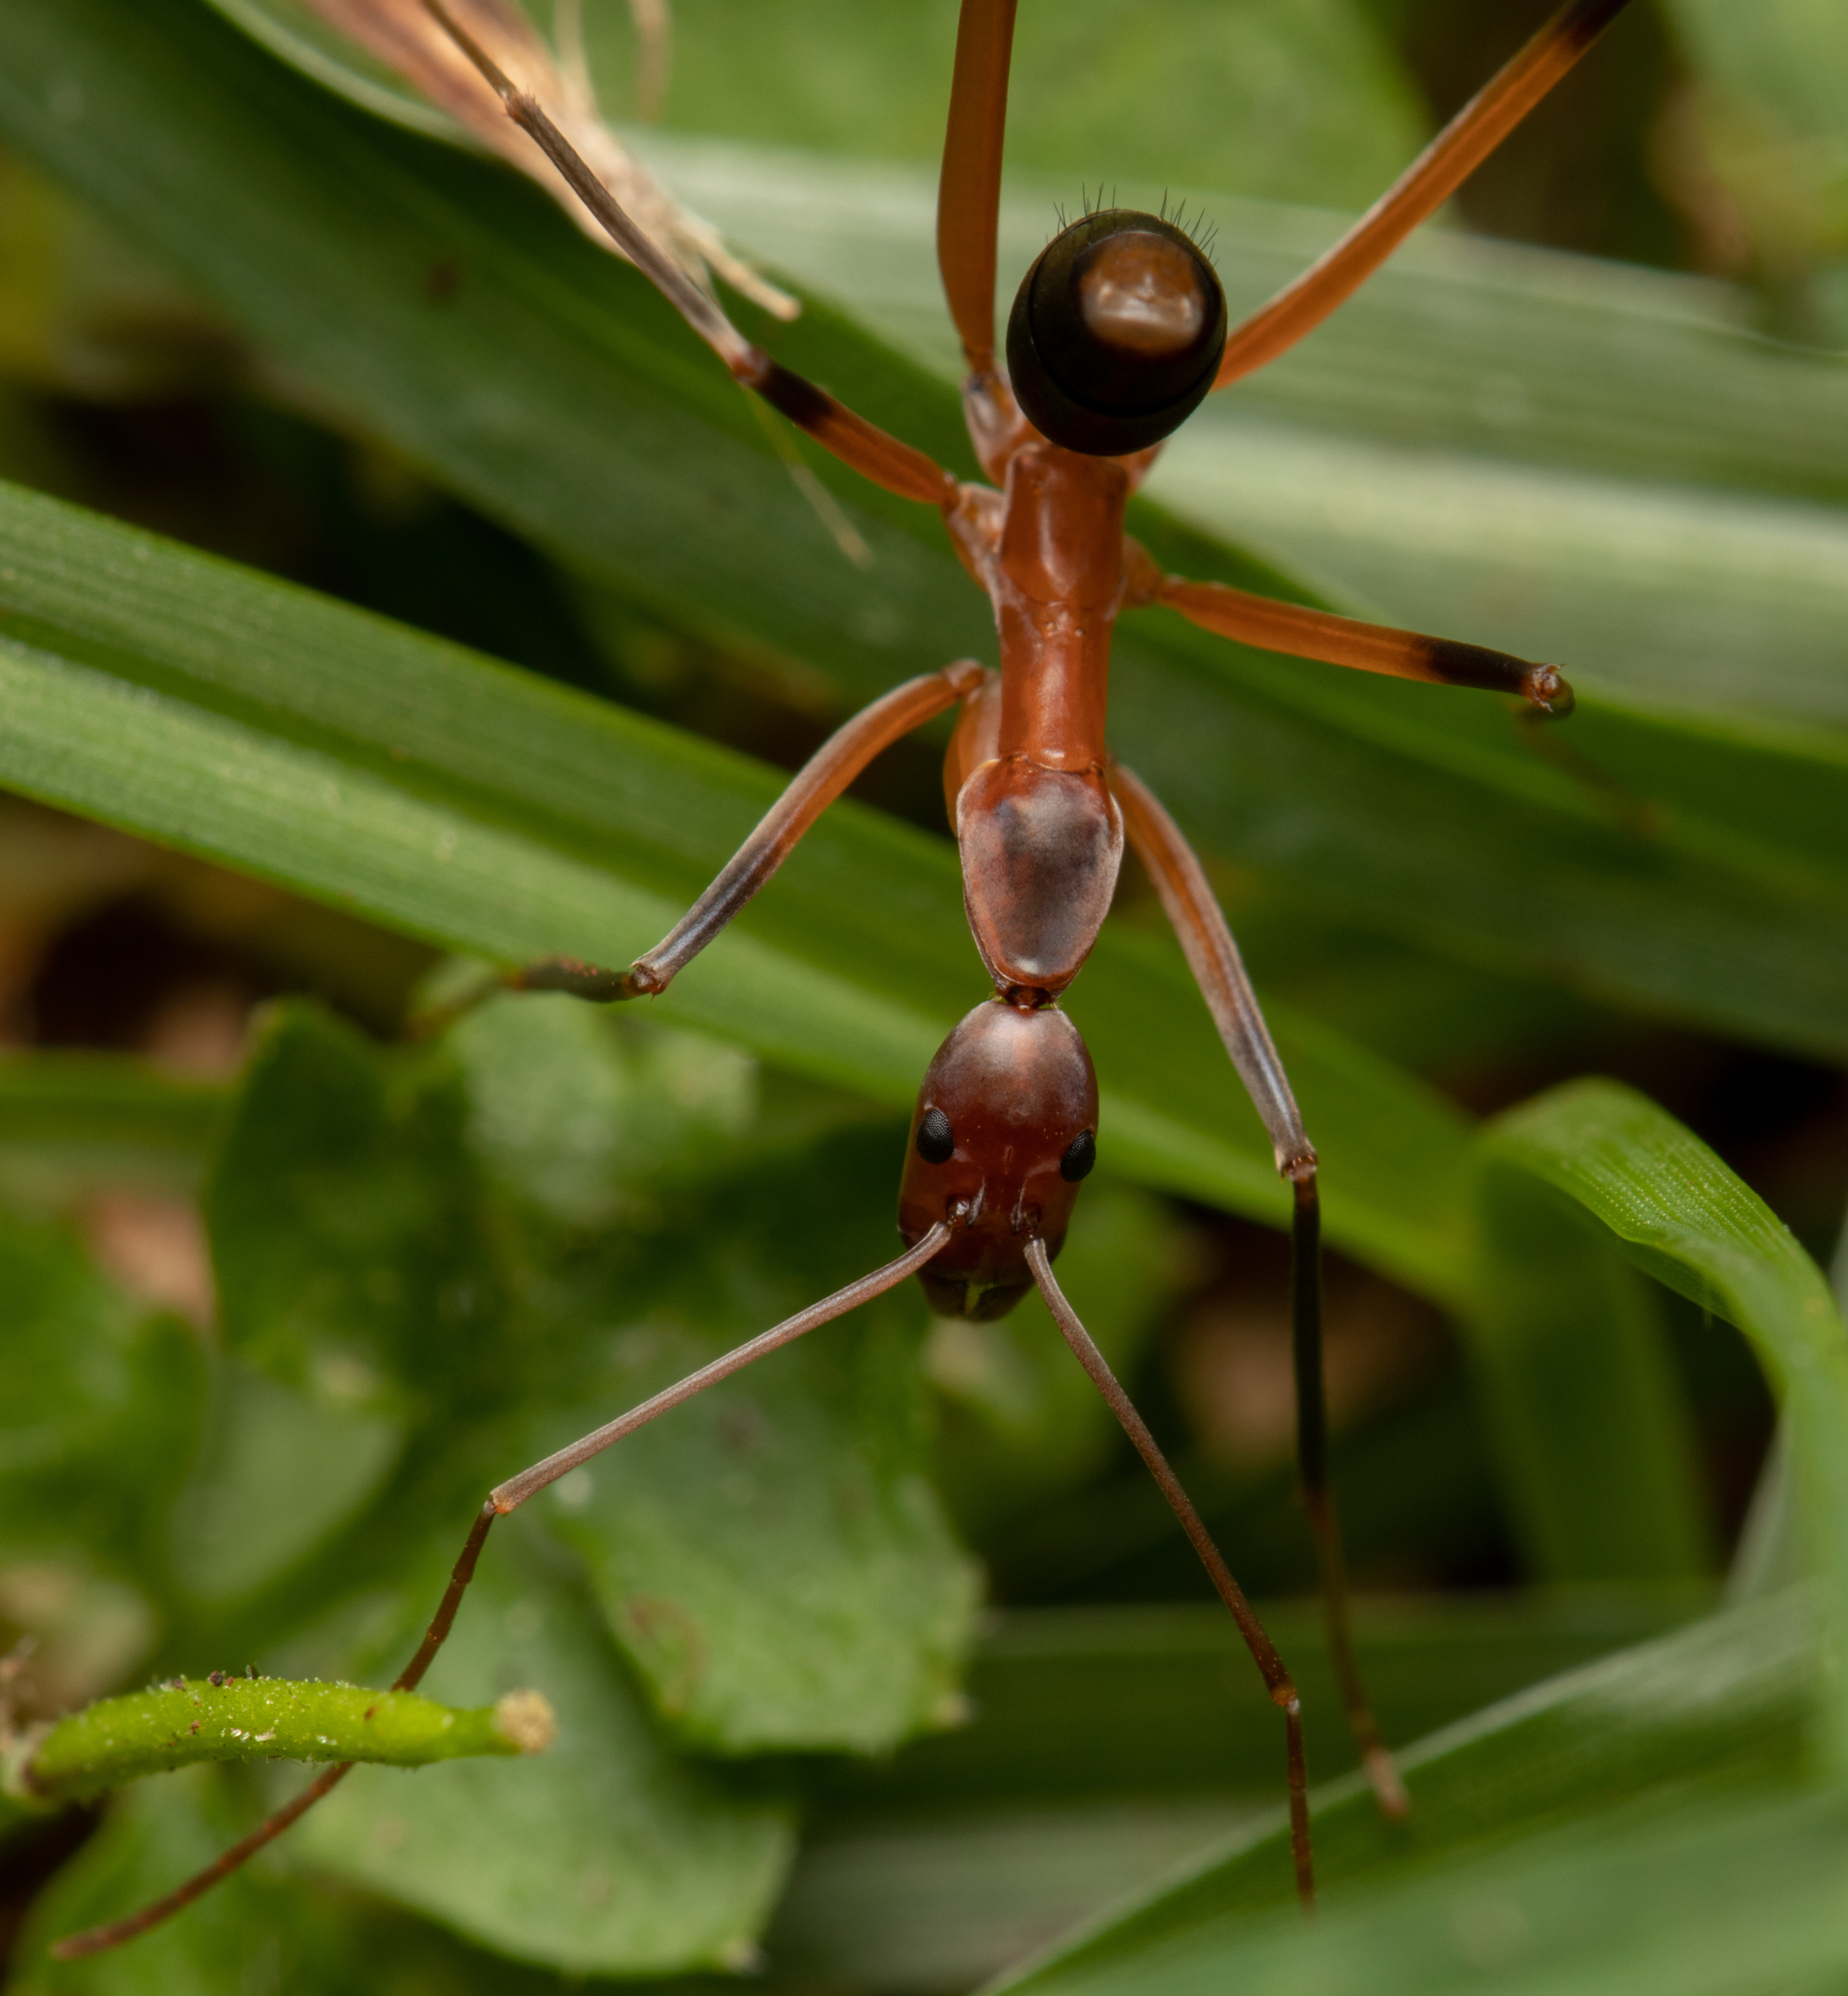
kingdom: Animalia
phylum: Arthropoda
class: Insecta
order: Hymenoptera
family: Formicidae
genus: Leptomyrmex
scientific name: Leptomyrmex cnemidatus
